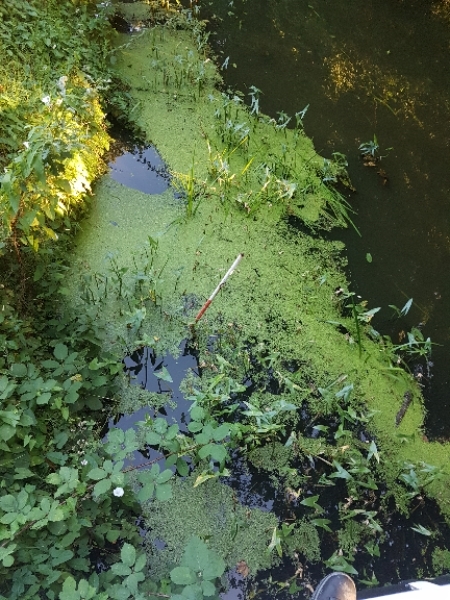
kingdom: Plantae
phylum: Tracheophyta
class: Liliopsida
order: Alismatales
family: Alismataceae
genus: Sagittaria
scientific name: Sagittaria sagittifolia
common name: Arrowhead
